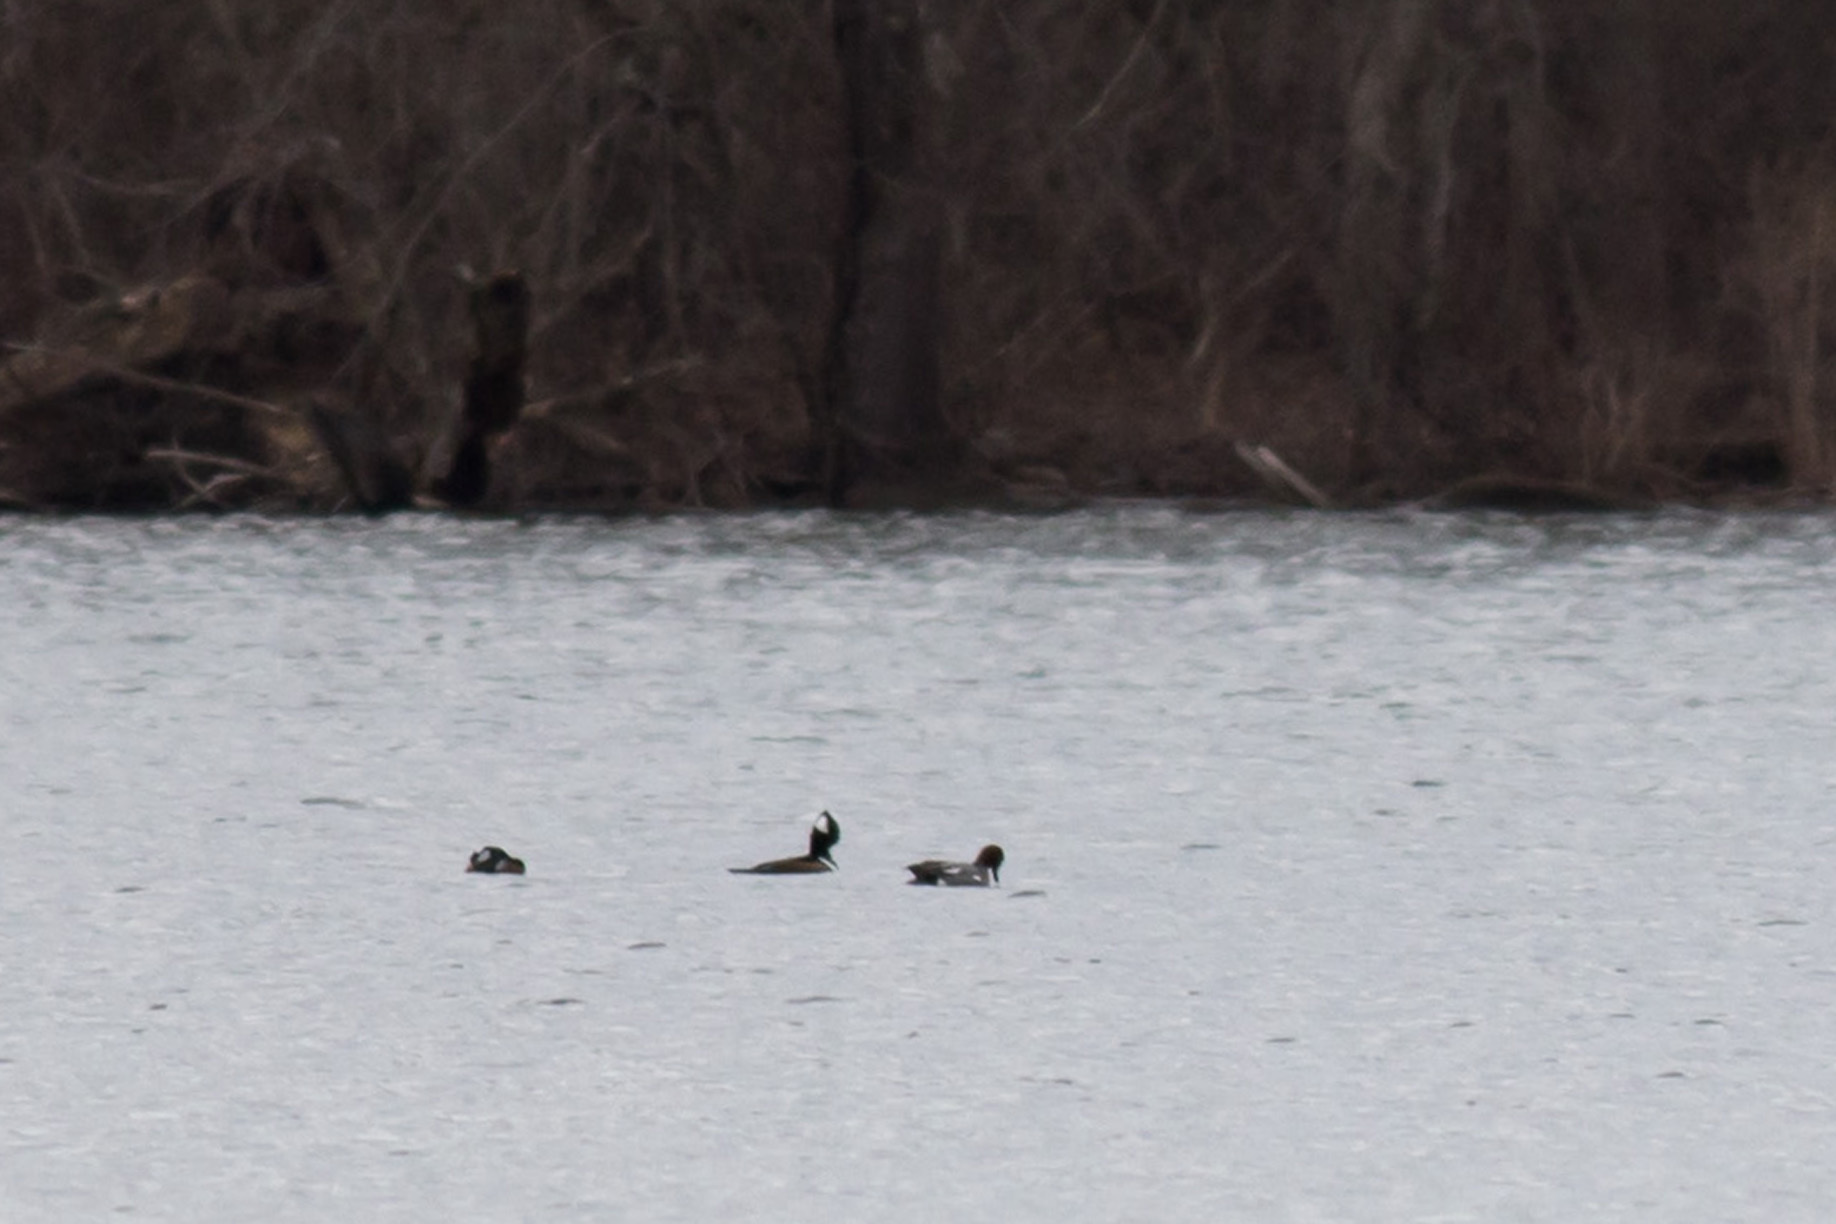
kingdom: Animalia
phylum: Chordata
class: Aves
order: Anseriformes
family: Anatidae
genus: Mareca
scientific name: Mareca penelope
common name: Eurasian wigeon
